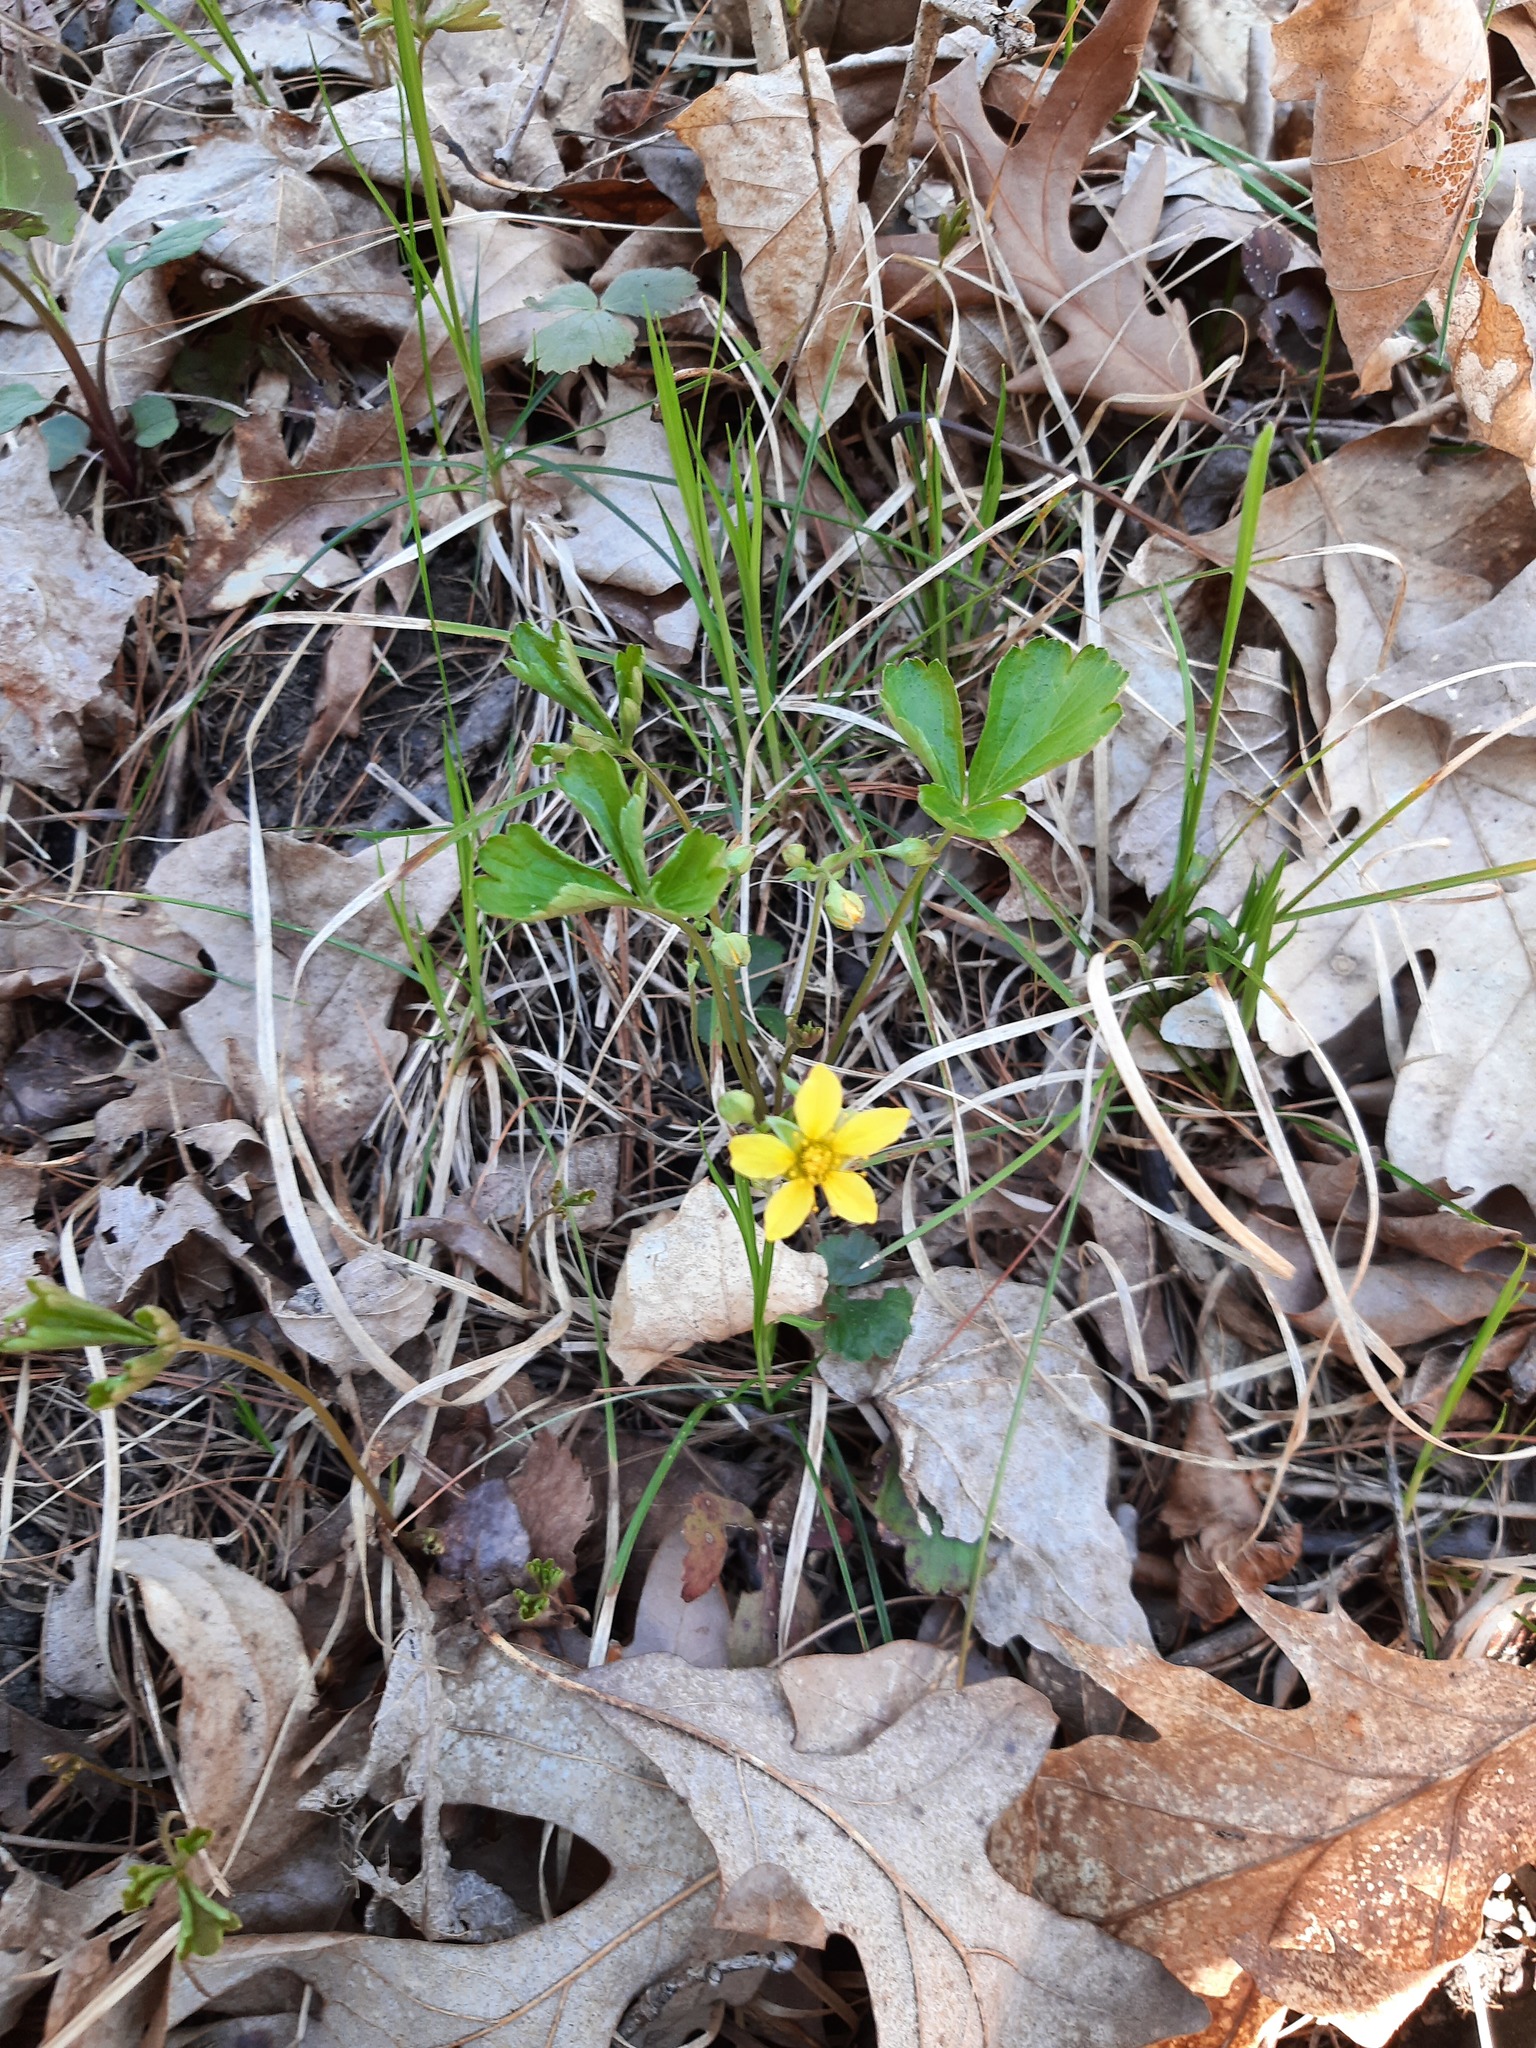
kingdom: Plantae
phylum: Tracheophyta
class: Magnoliopsida
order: Rosales
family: Rosaceae
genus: Geum
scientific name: Geum fragarioides
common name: Appalachian barren strawberry
